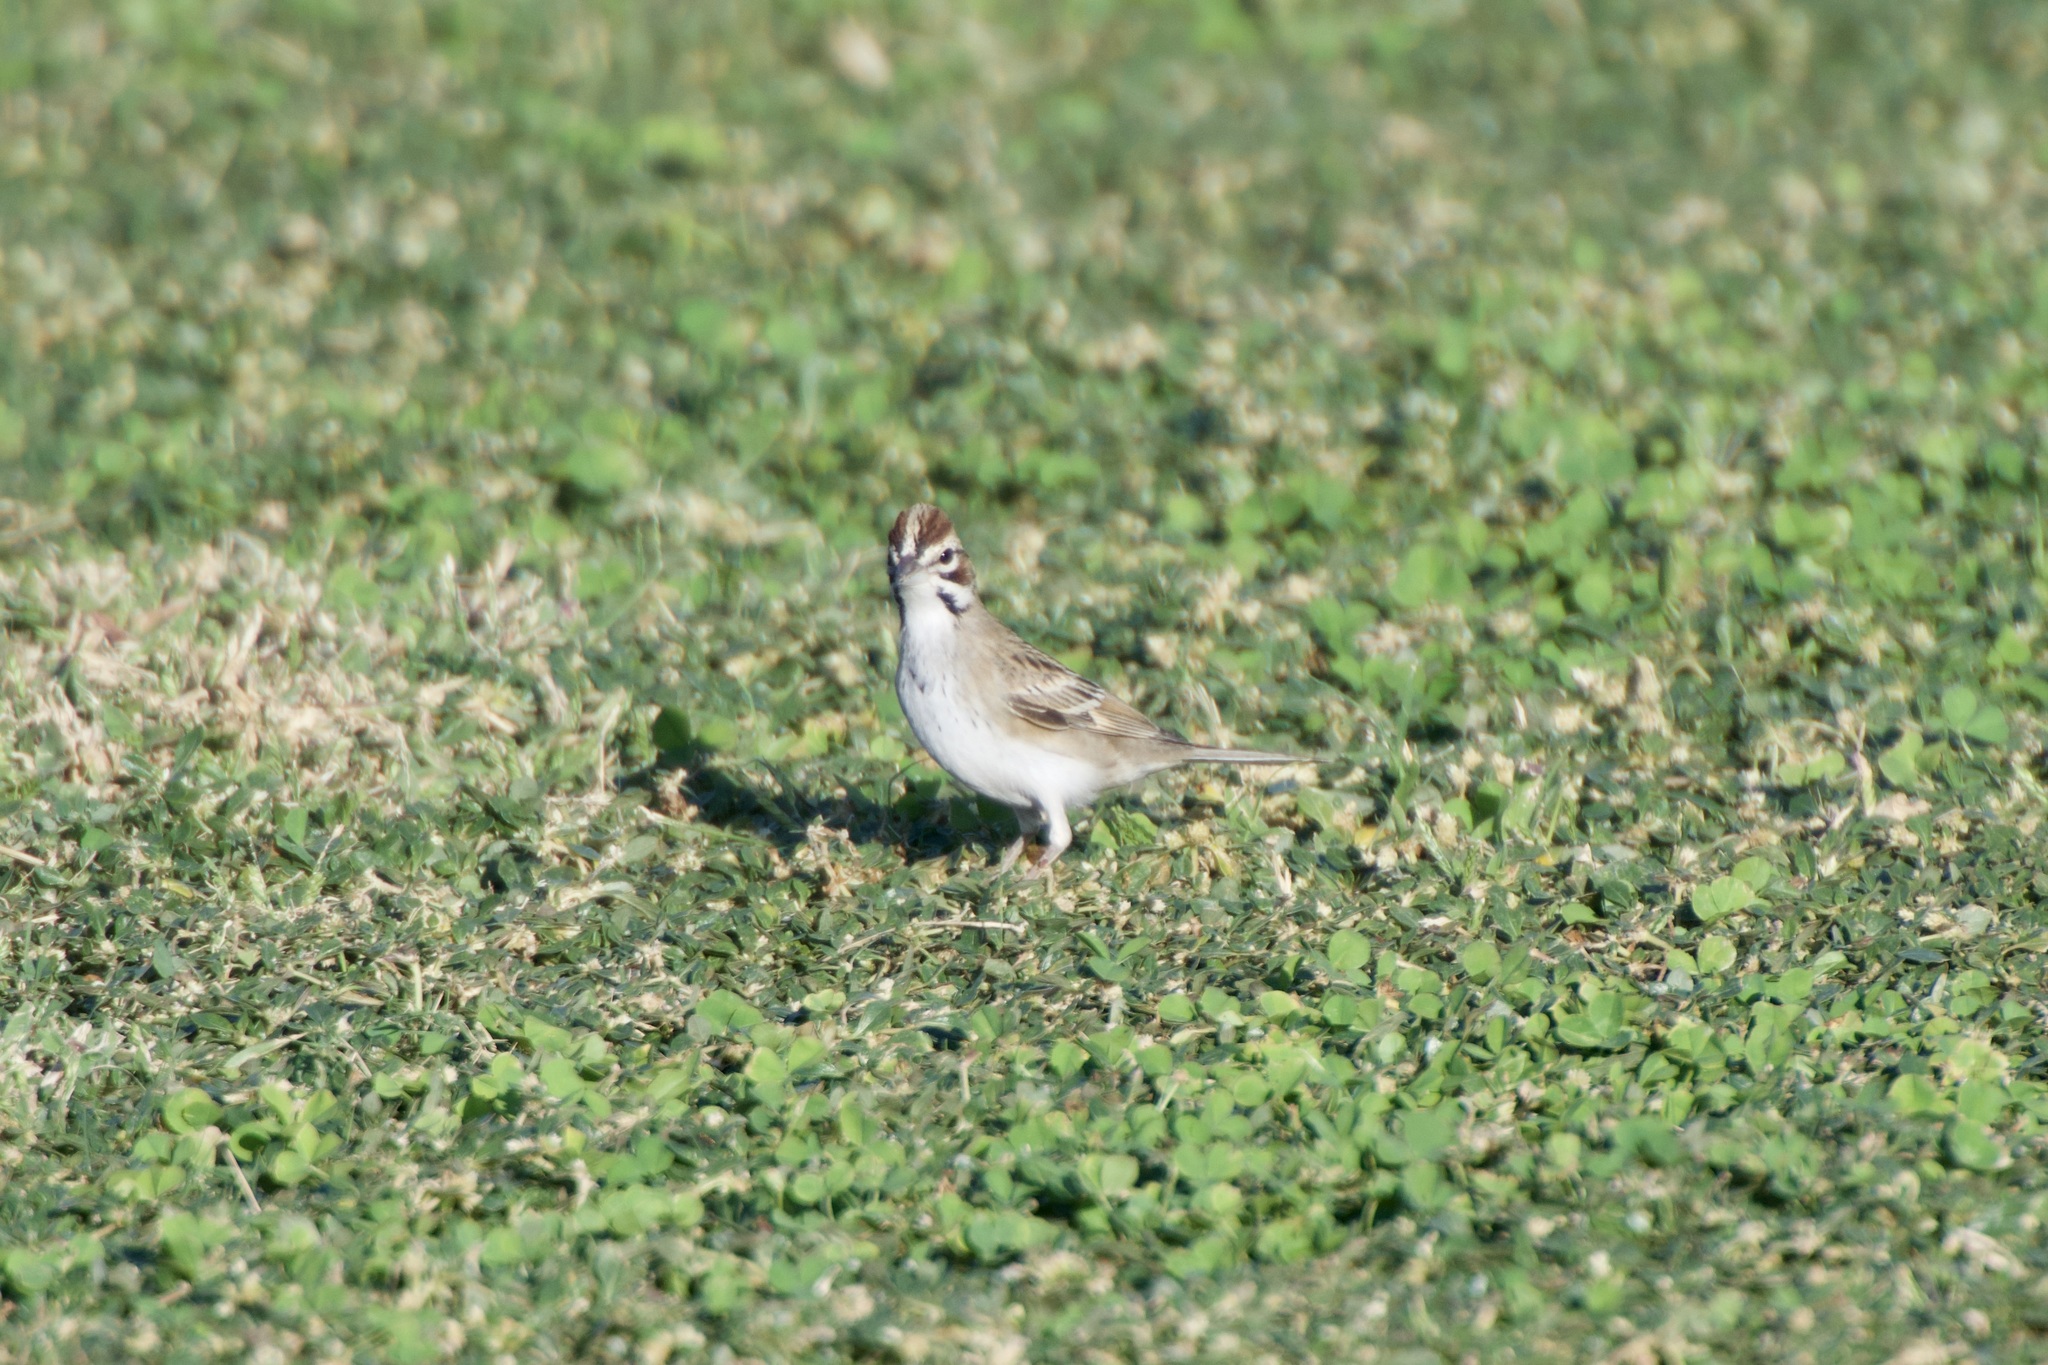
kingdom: Animalia
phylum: Chordata
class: Aves
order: Passeriformes
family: Passerellidae
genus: Chondestes
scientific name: Chondestes grammacus
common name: Lark sparrow
